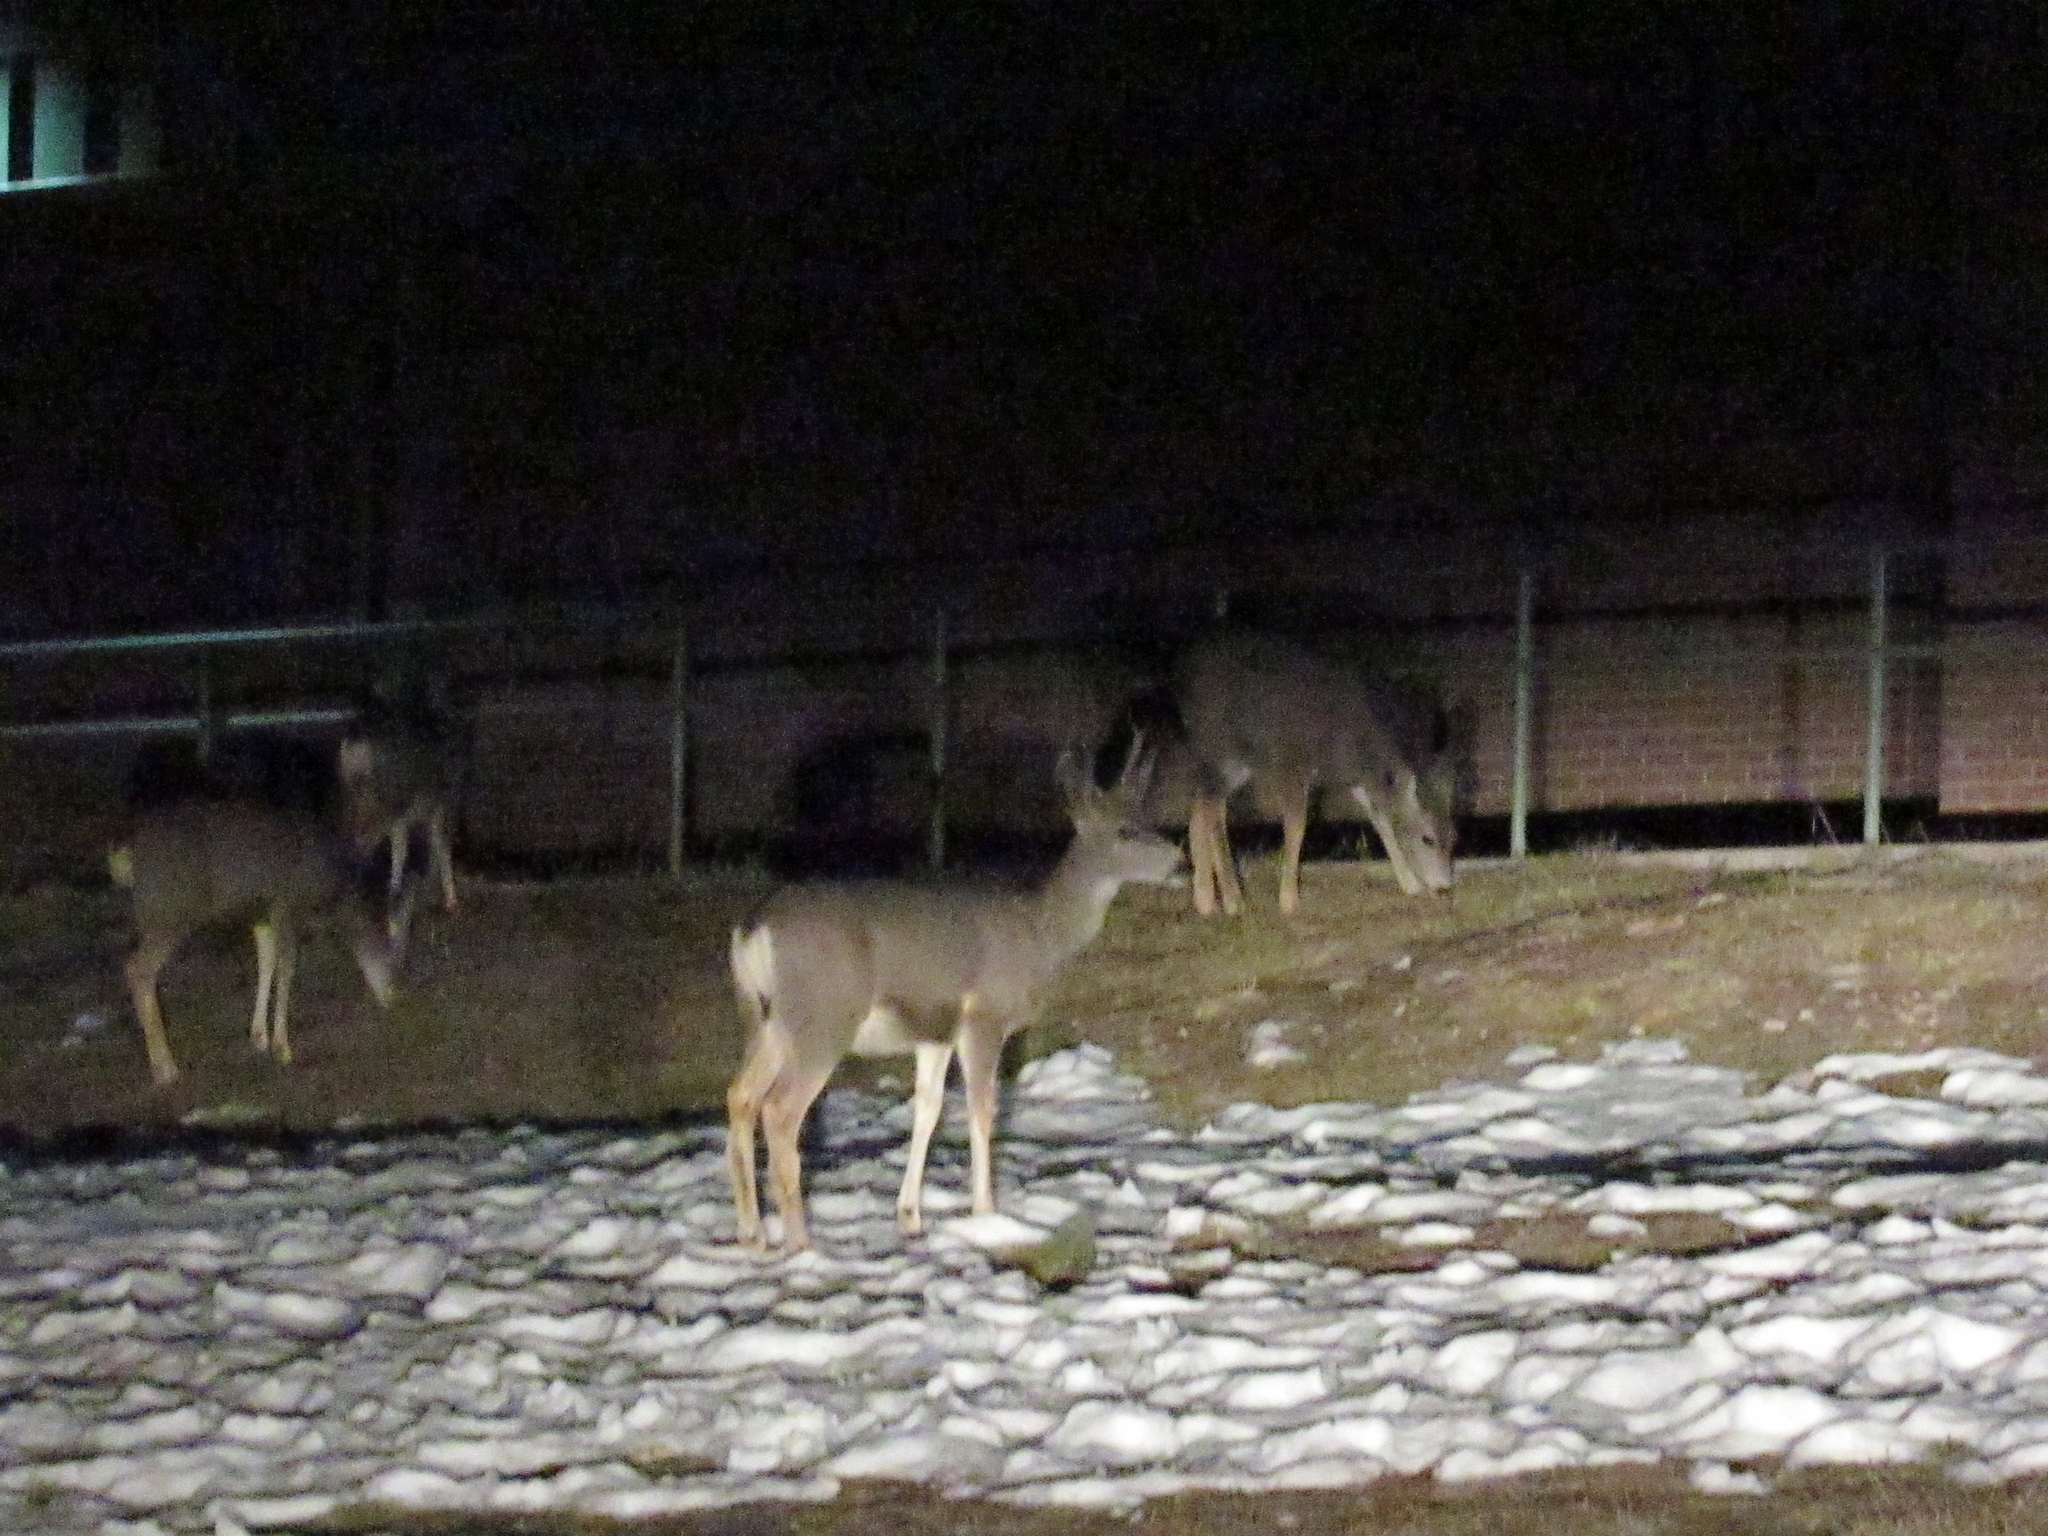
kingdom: Animalia
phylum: Chordata
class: Mammalia
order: Artiodactyla
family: Cervidae
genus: Odocoileus
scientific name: Odocoileus hemionus
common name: Mule deer
